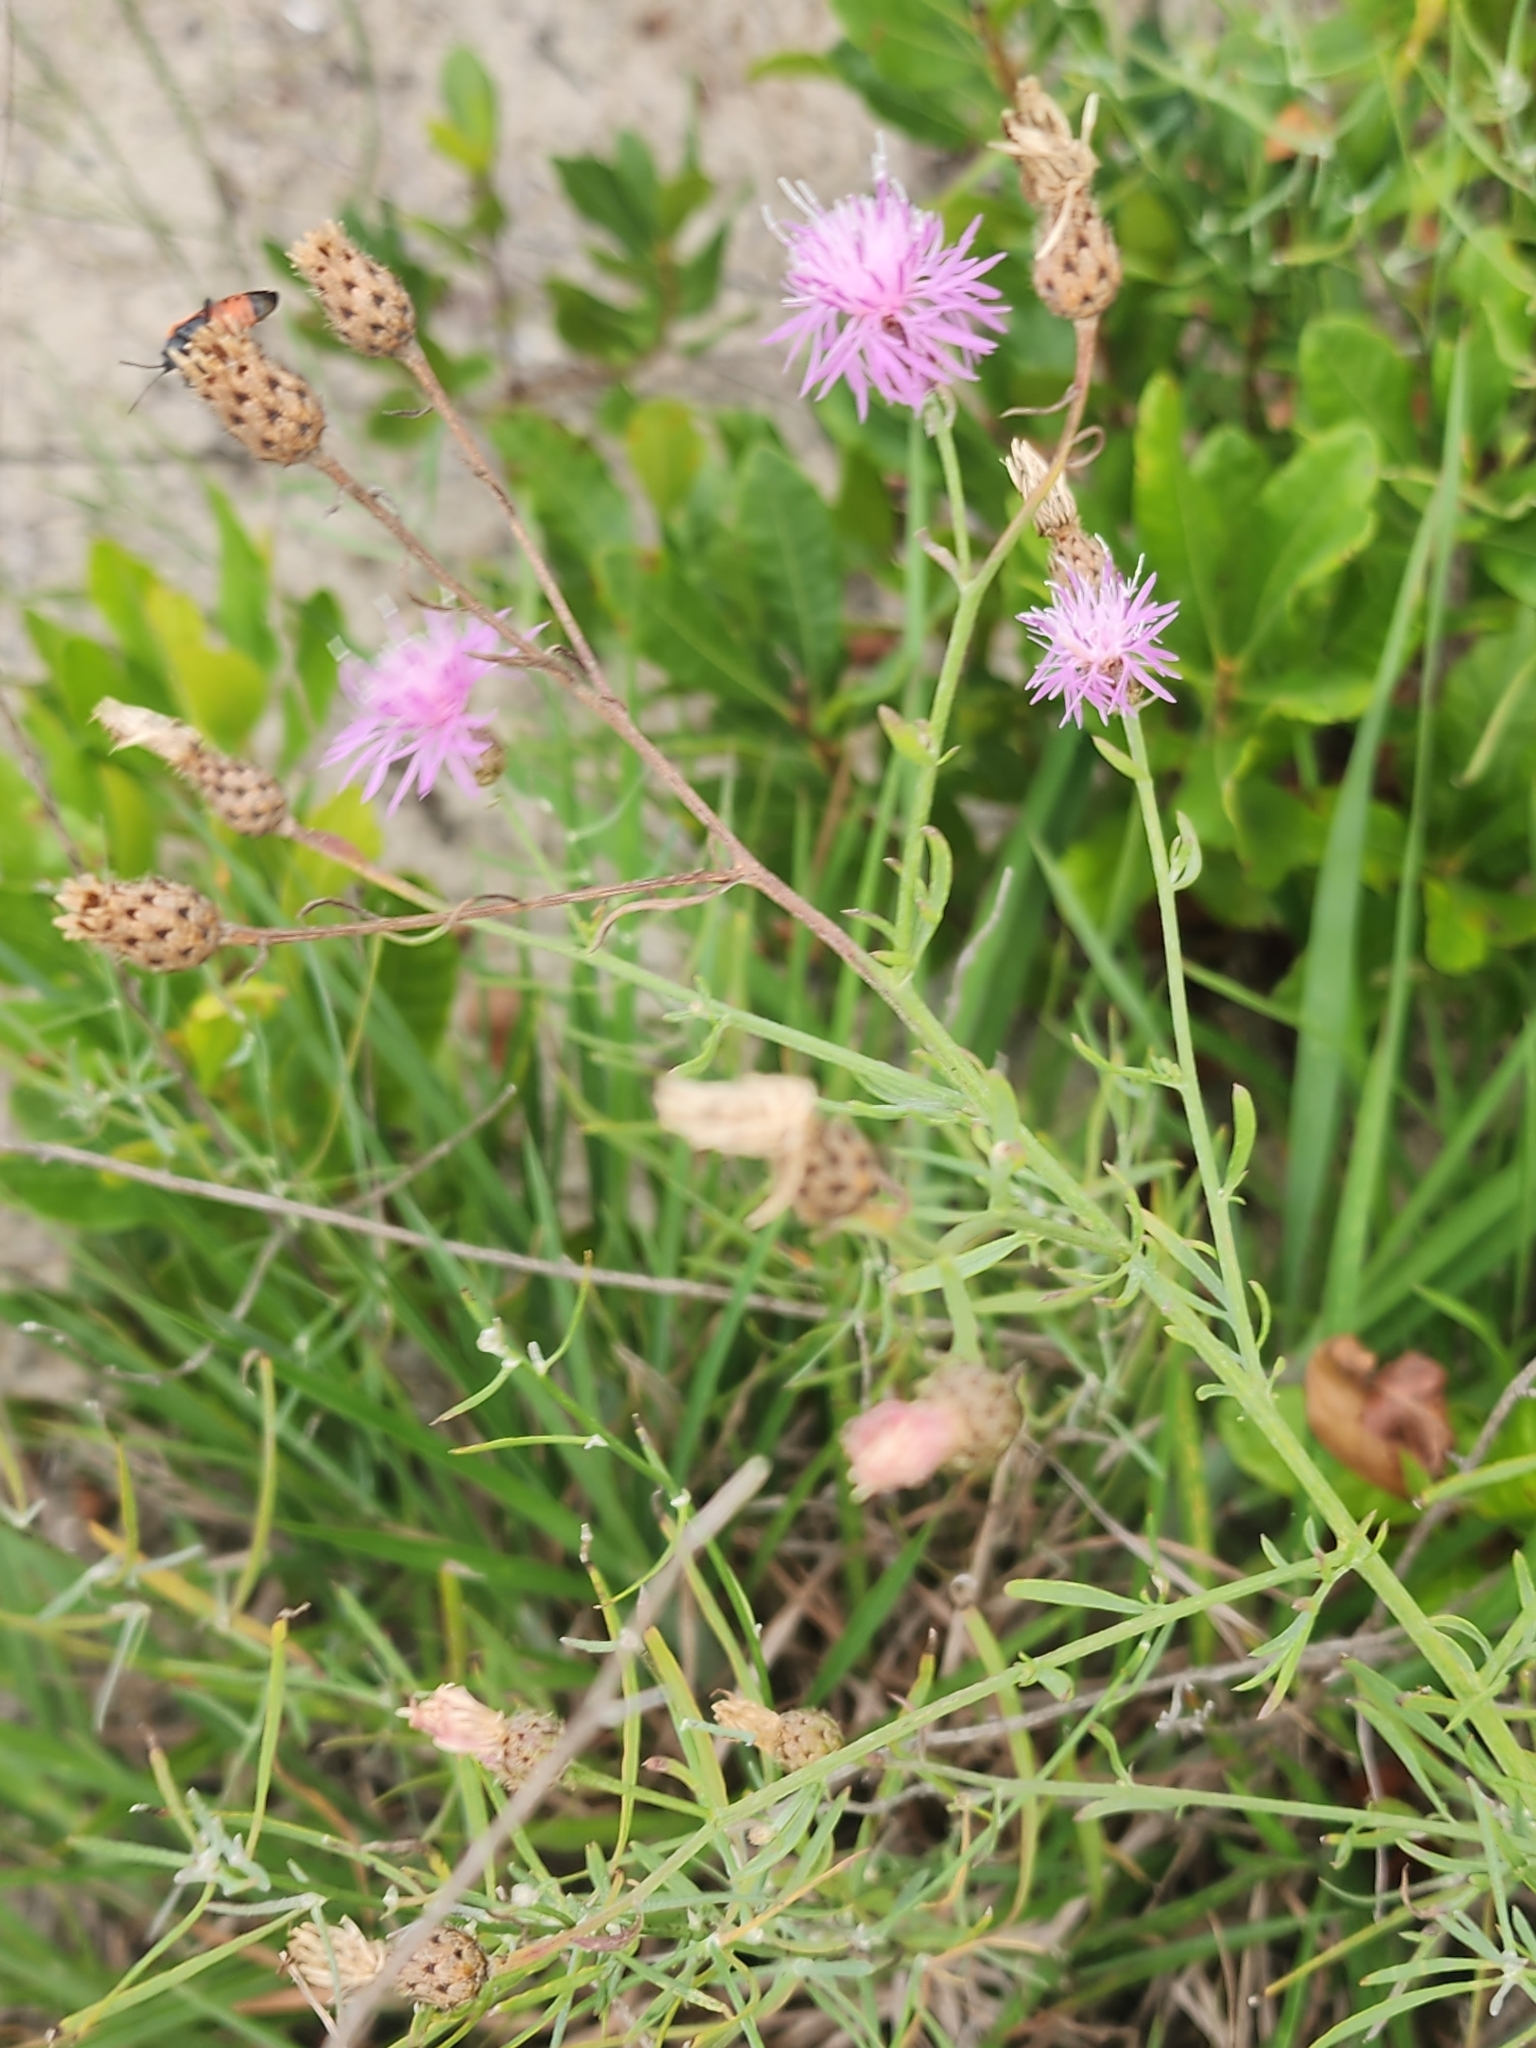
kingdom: Plantae
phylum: Tracheophyta
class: Magnoliopsida
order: Asterales
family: Asteraceae
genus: Centaurea
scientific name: Centaurea stoebe
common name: Spotted knapweed
